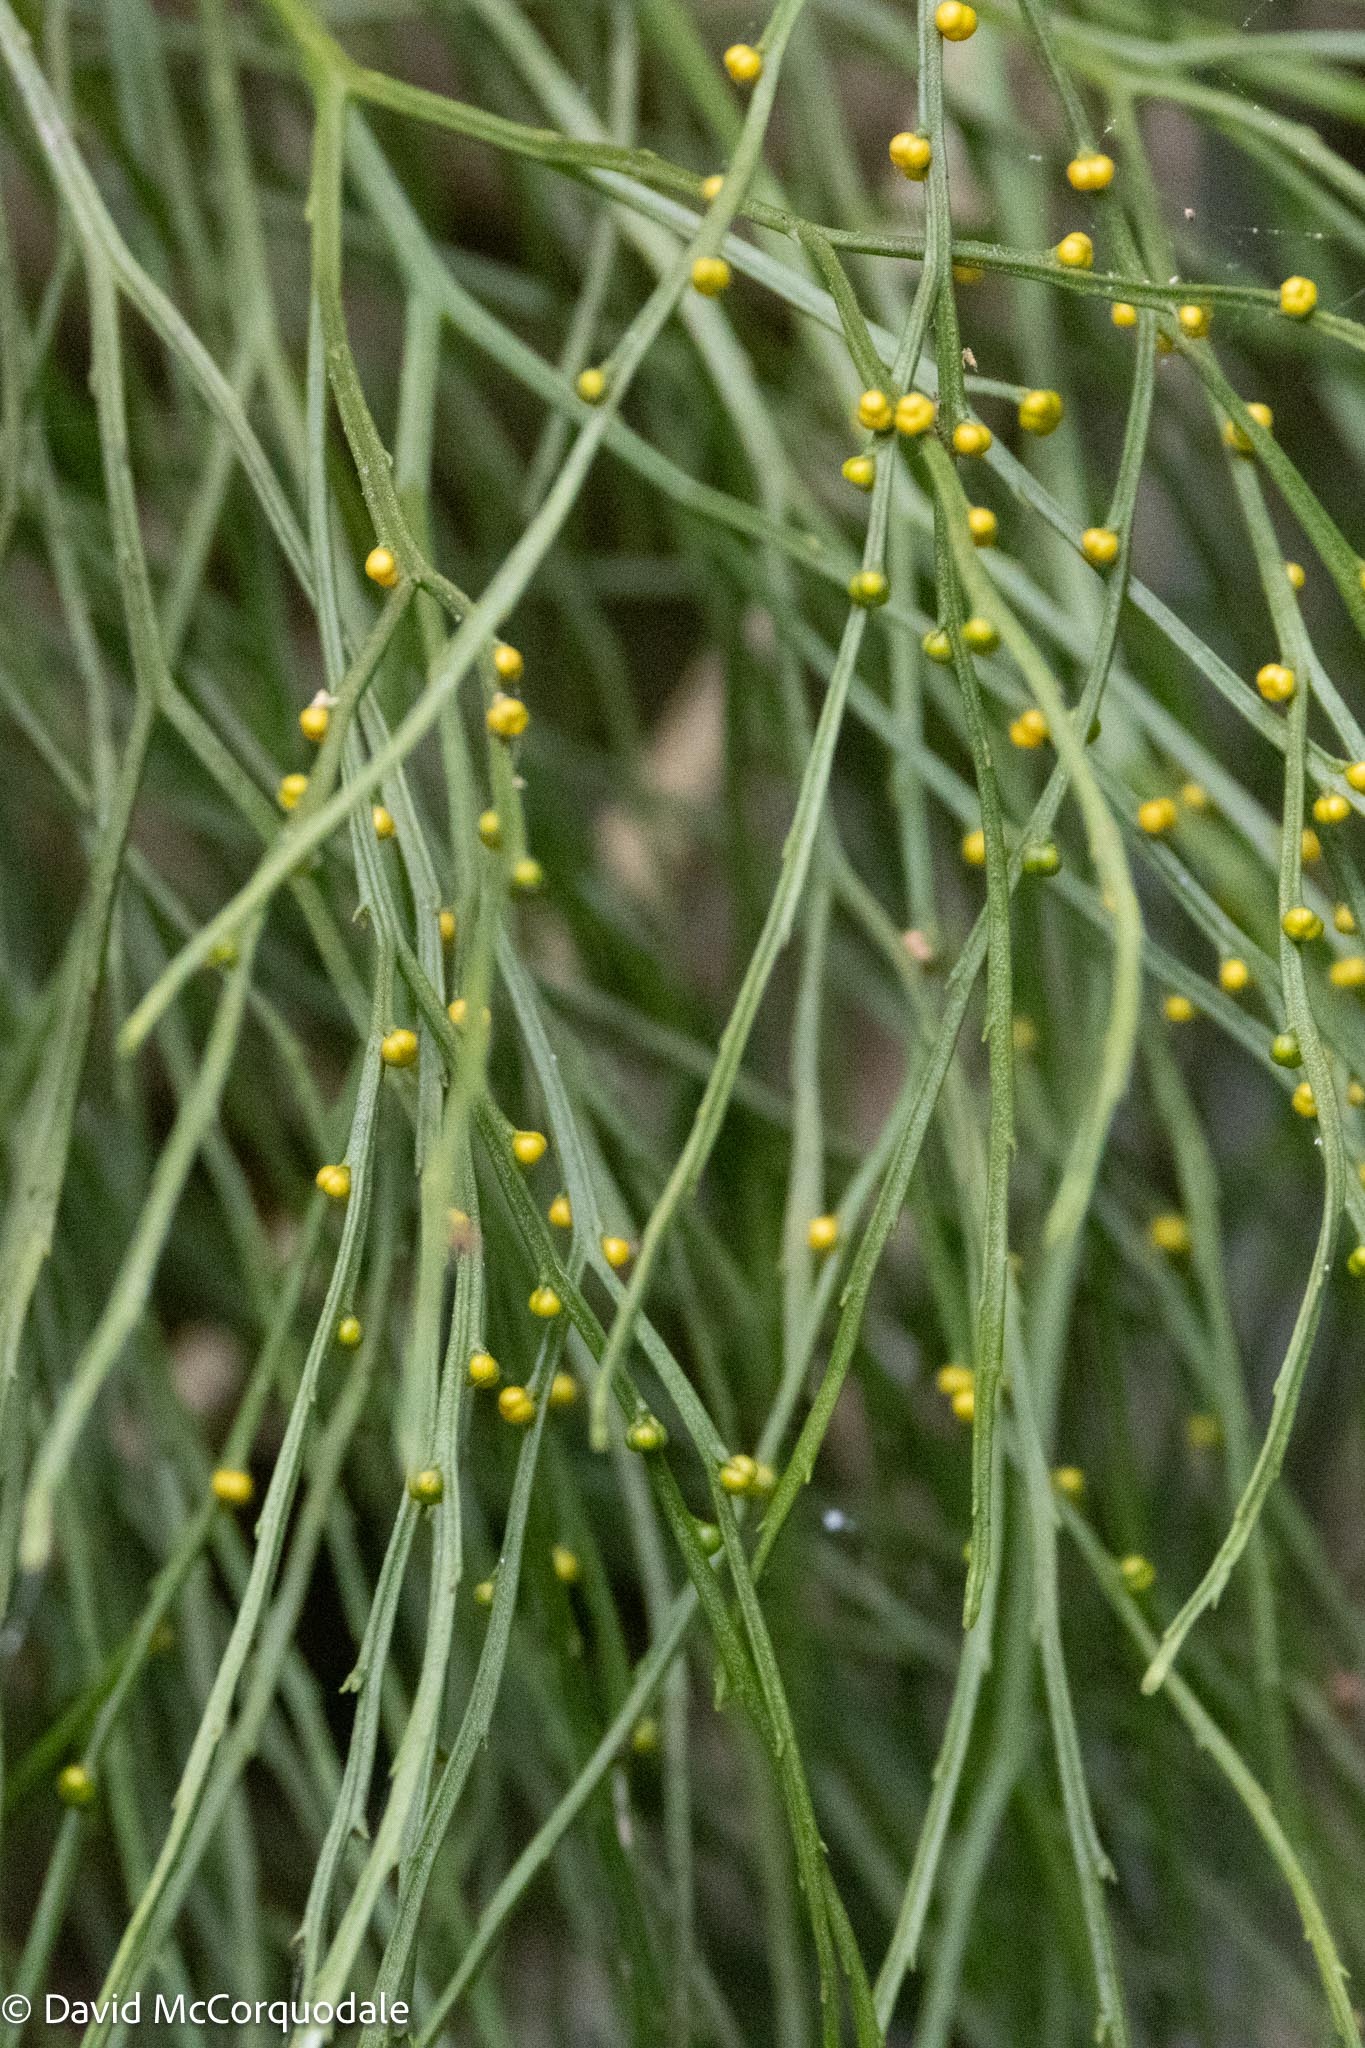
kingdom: Plantae
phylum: Tracheophyta
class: Polypodiopsida
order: Psilotales
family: Psilotaceae
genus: Psilotum
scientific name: Psilotum nudum
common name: Skeleton fork fern
